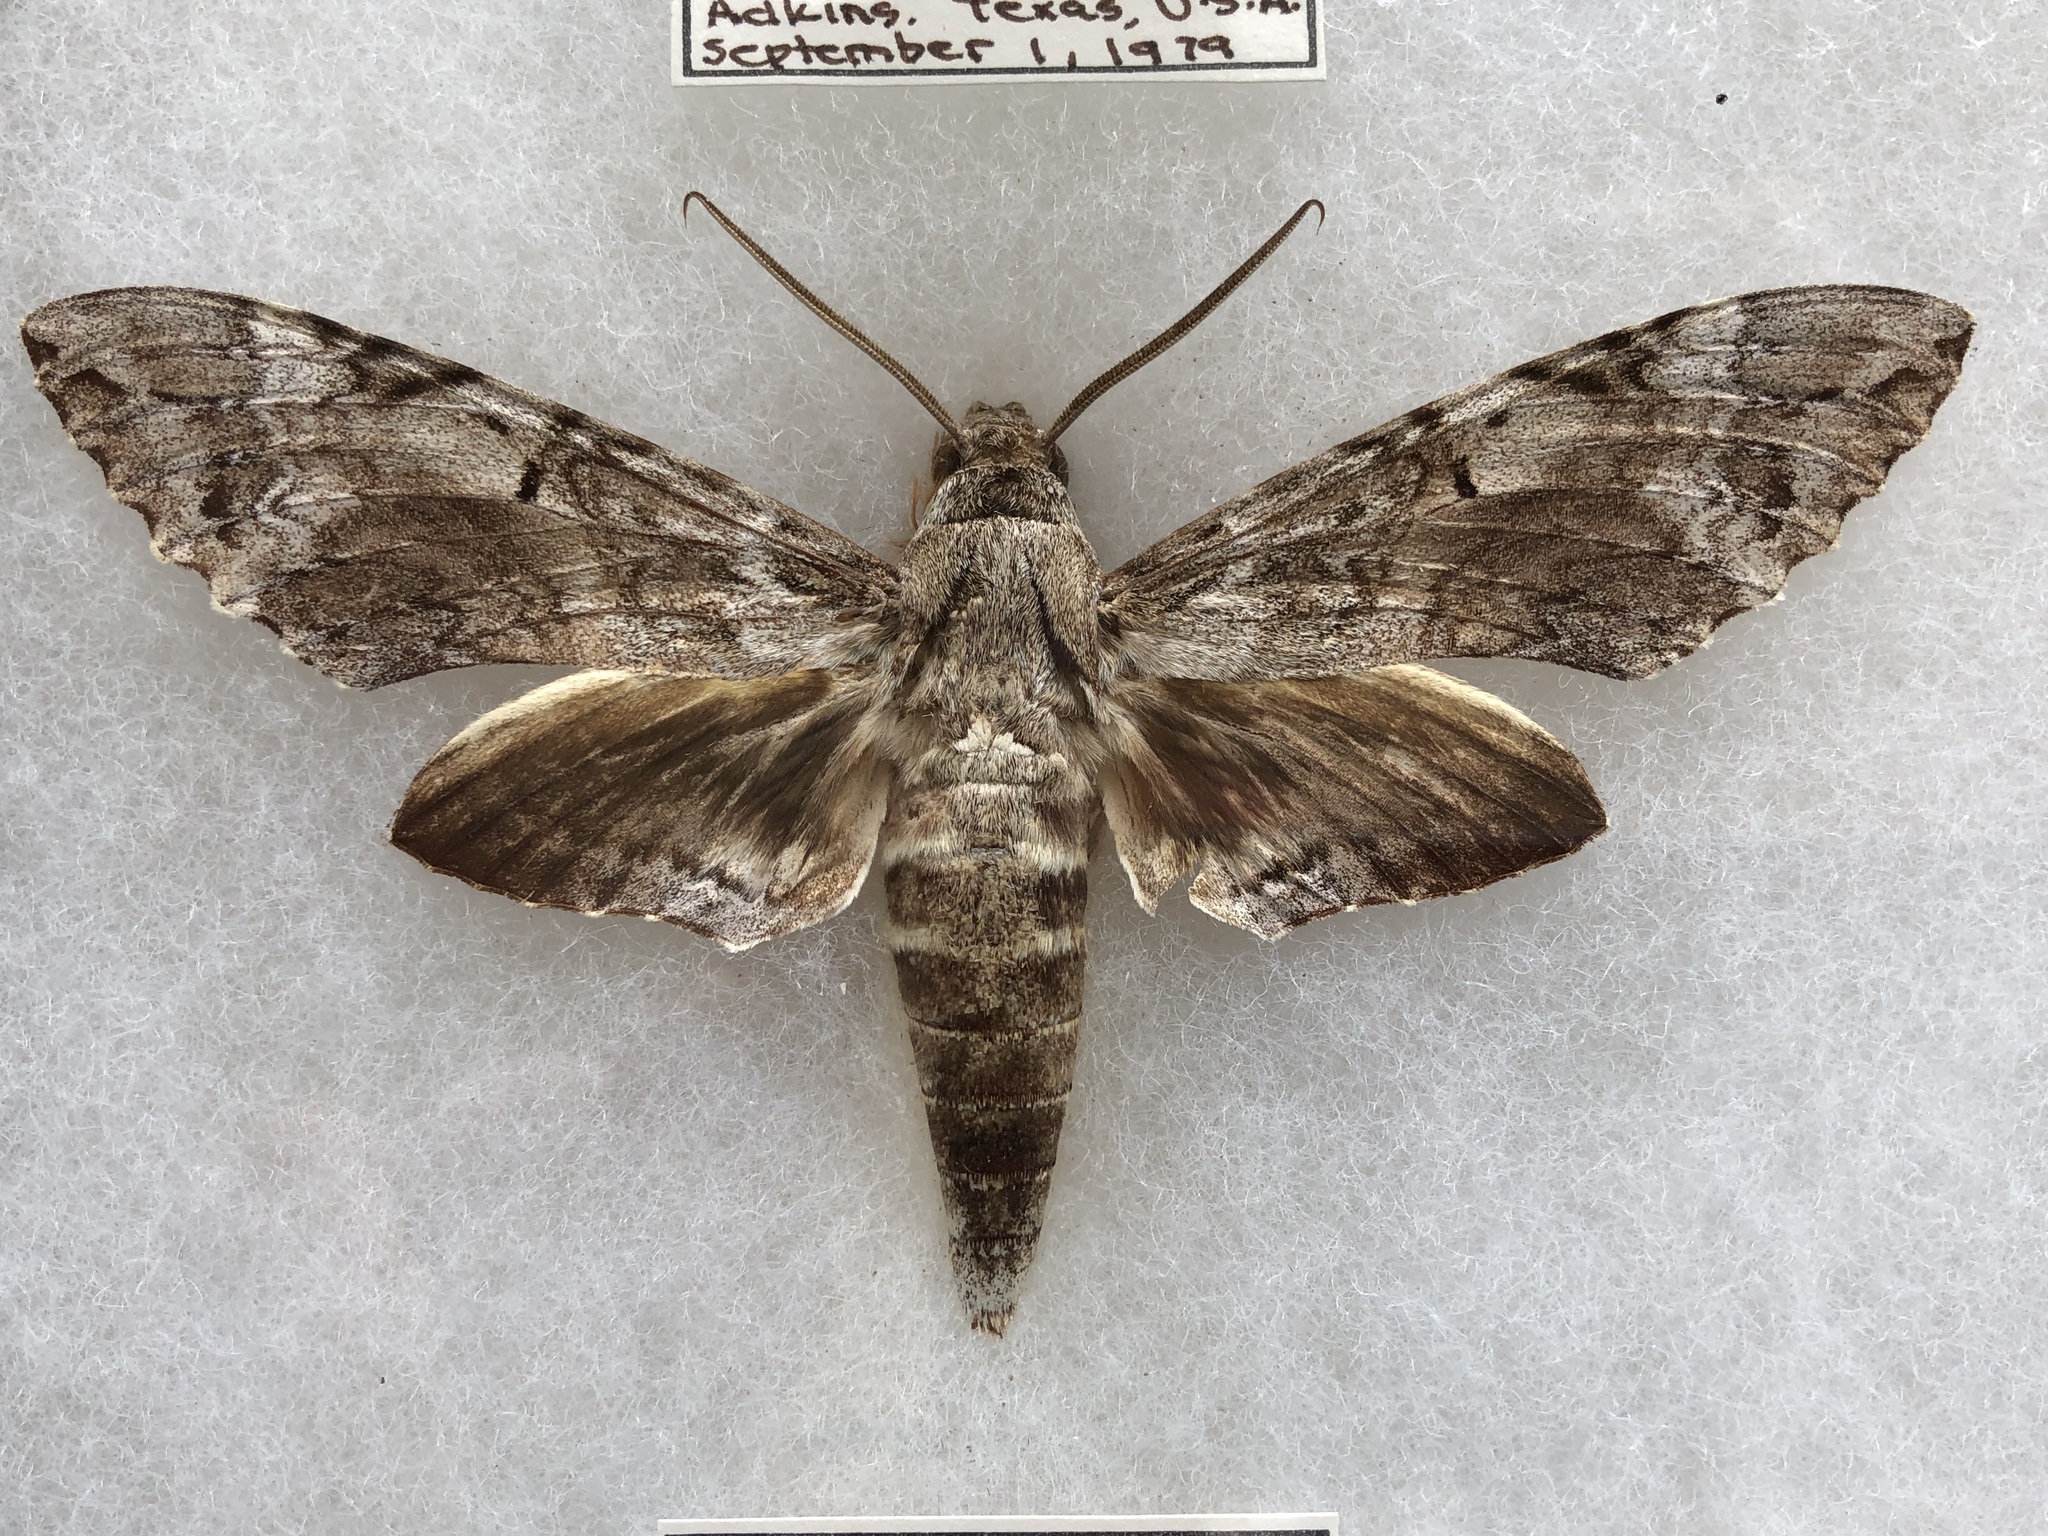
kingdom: Animalia
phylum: Arthropoda
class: Insecta
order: Lepidoptera
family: Sphingidae
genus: Pseudosphinx
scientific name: Pseudosphinx tetrio
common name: Tetrio sphinx
